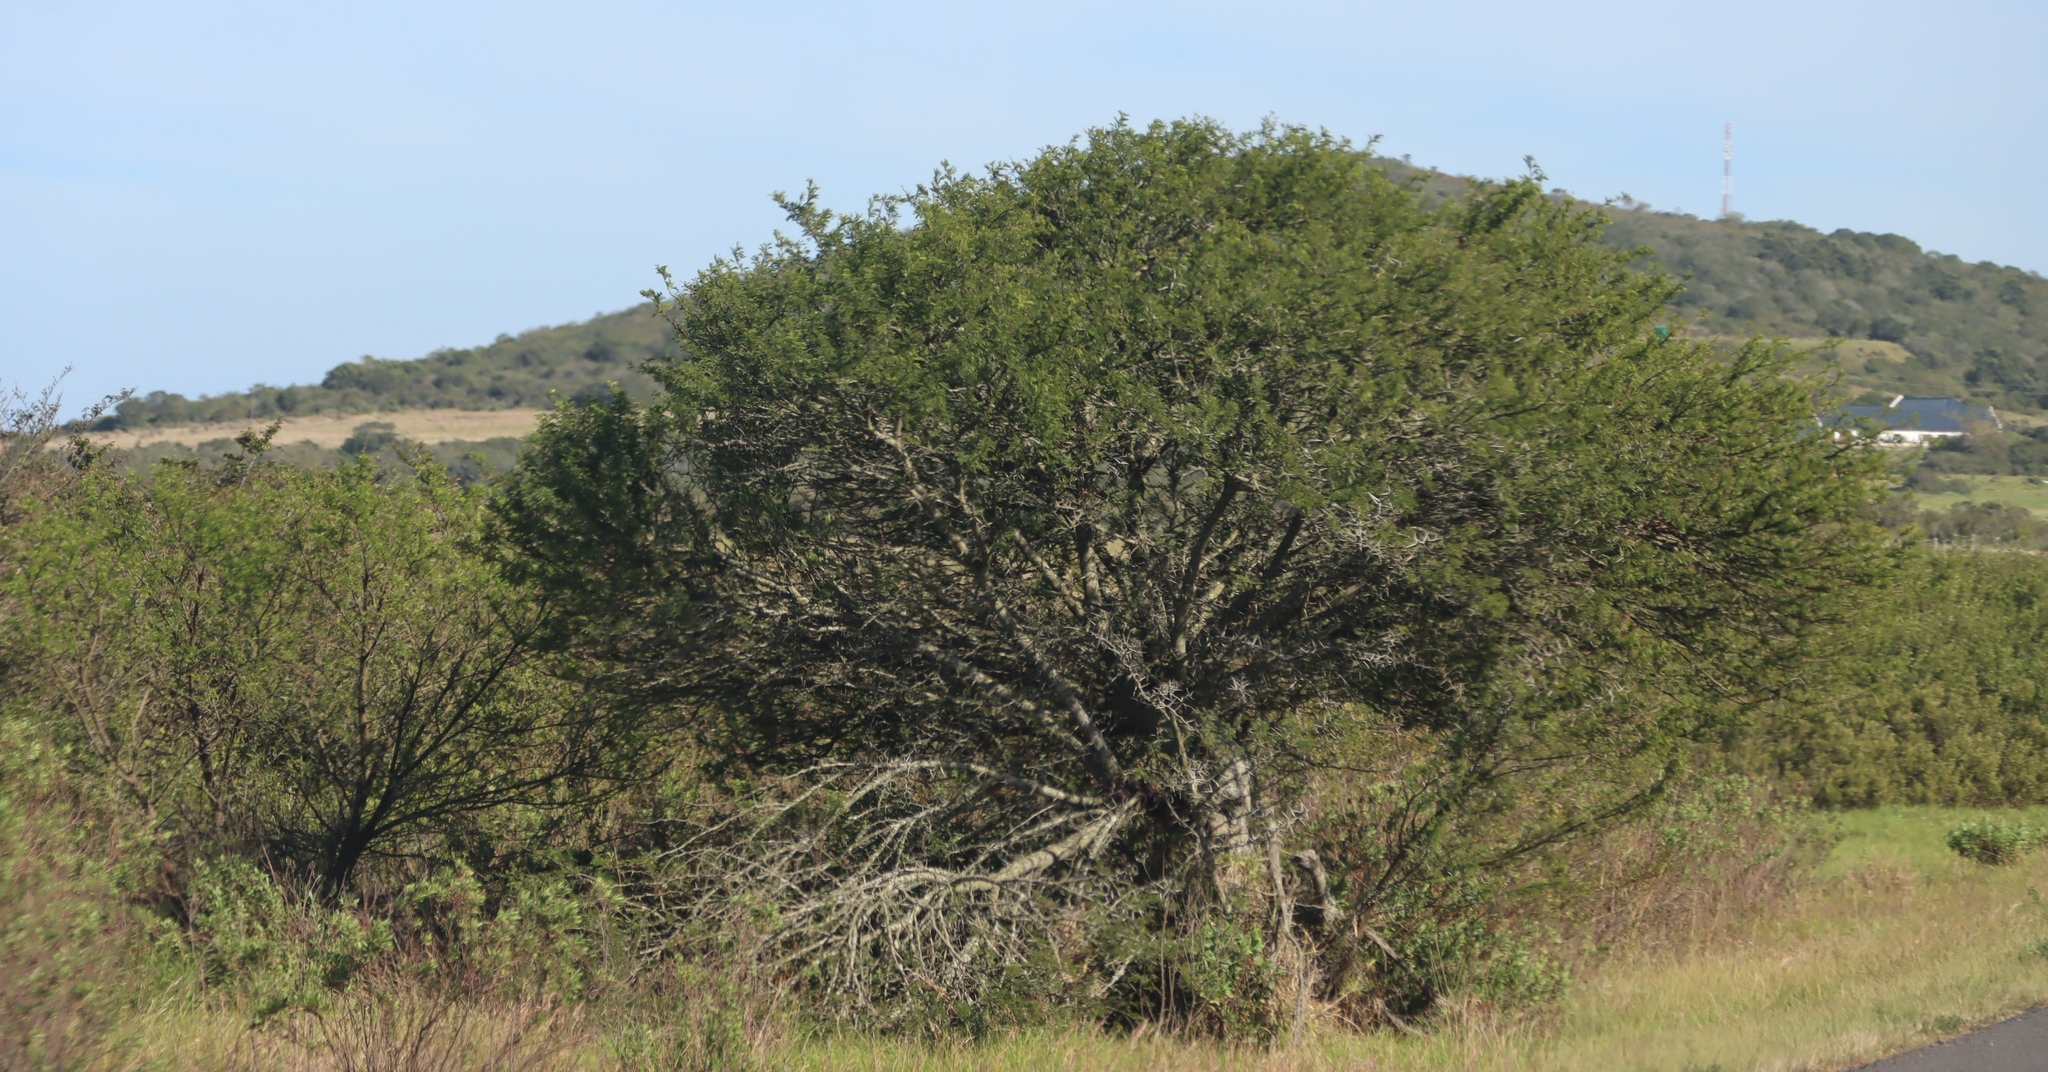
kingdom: Plantae
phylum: Tracheophyta
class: Magnoliopsida
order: Fabales
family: Fabaceae
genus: Vachellia
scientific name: Vachellia karroo
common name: Sweet thorn
